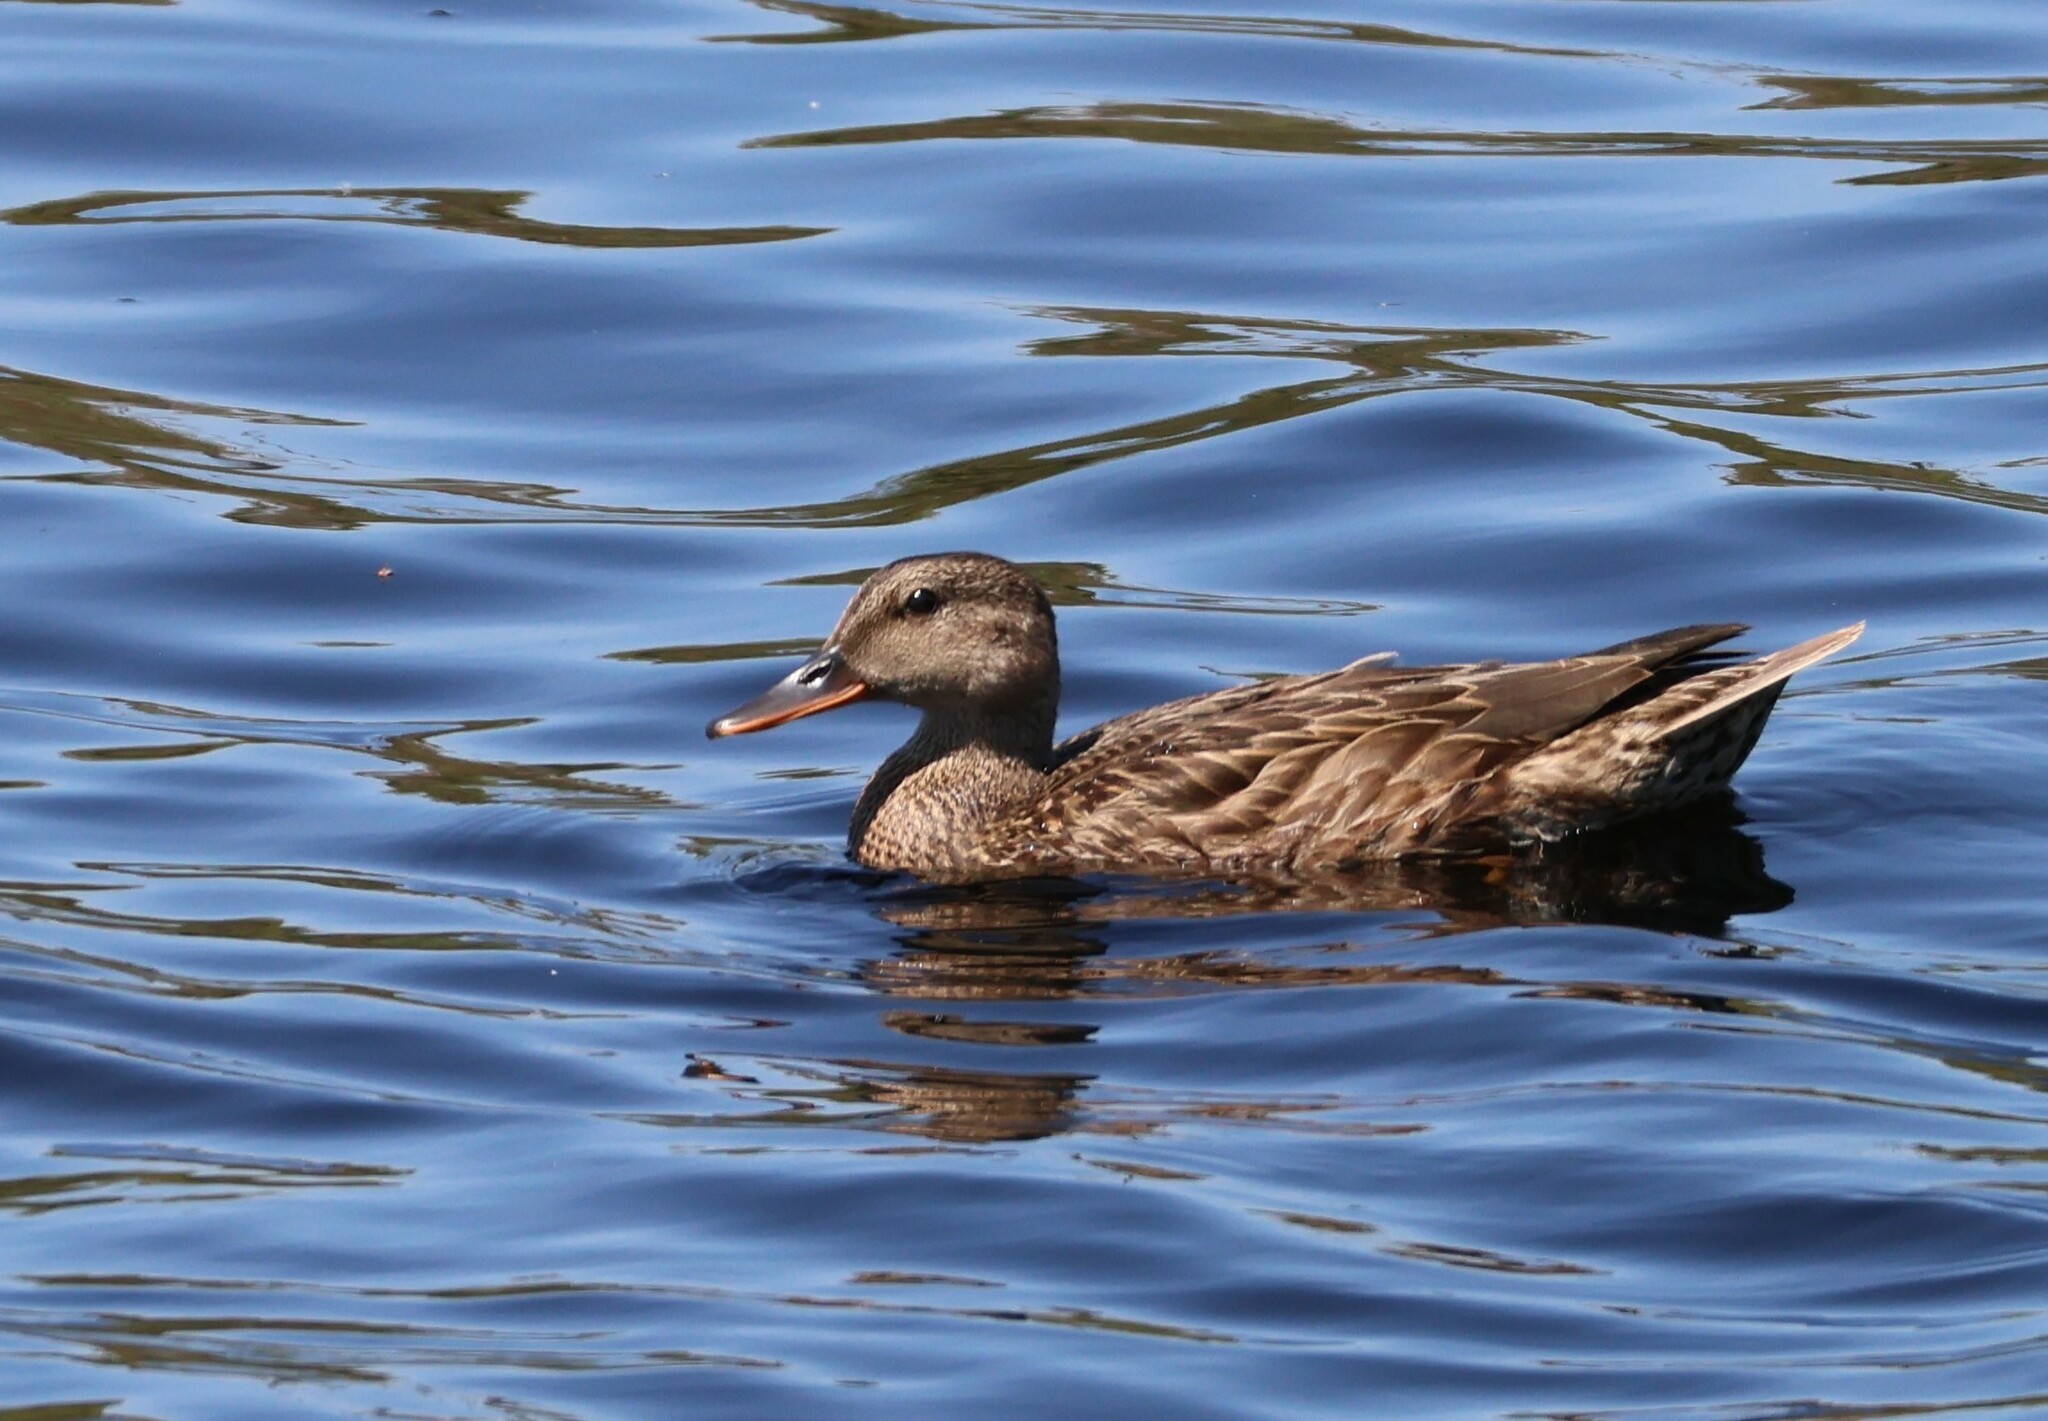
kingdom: Animalia
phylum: Chordata
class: Aves
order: Anseriformes
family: Anatidae
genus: Mareca
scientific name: Mareca strepera
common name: Gadwall
